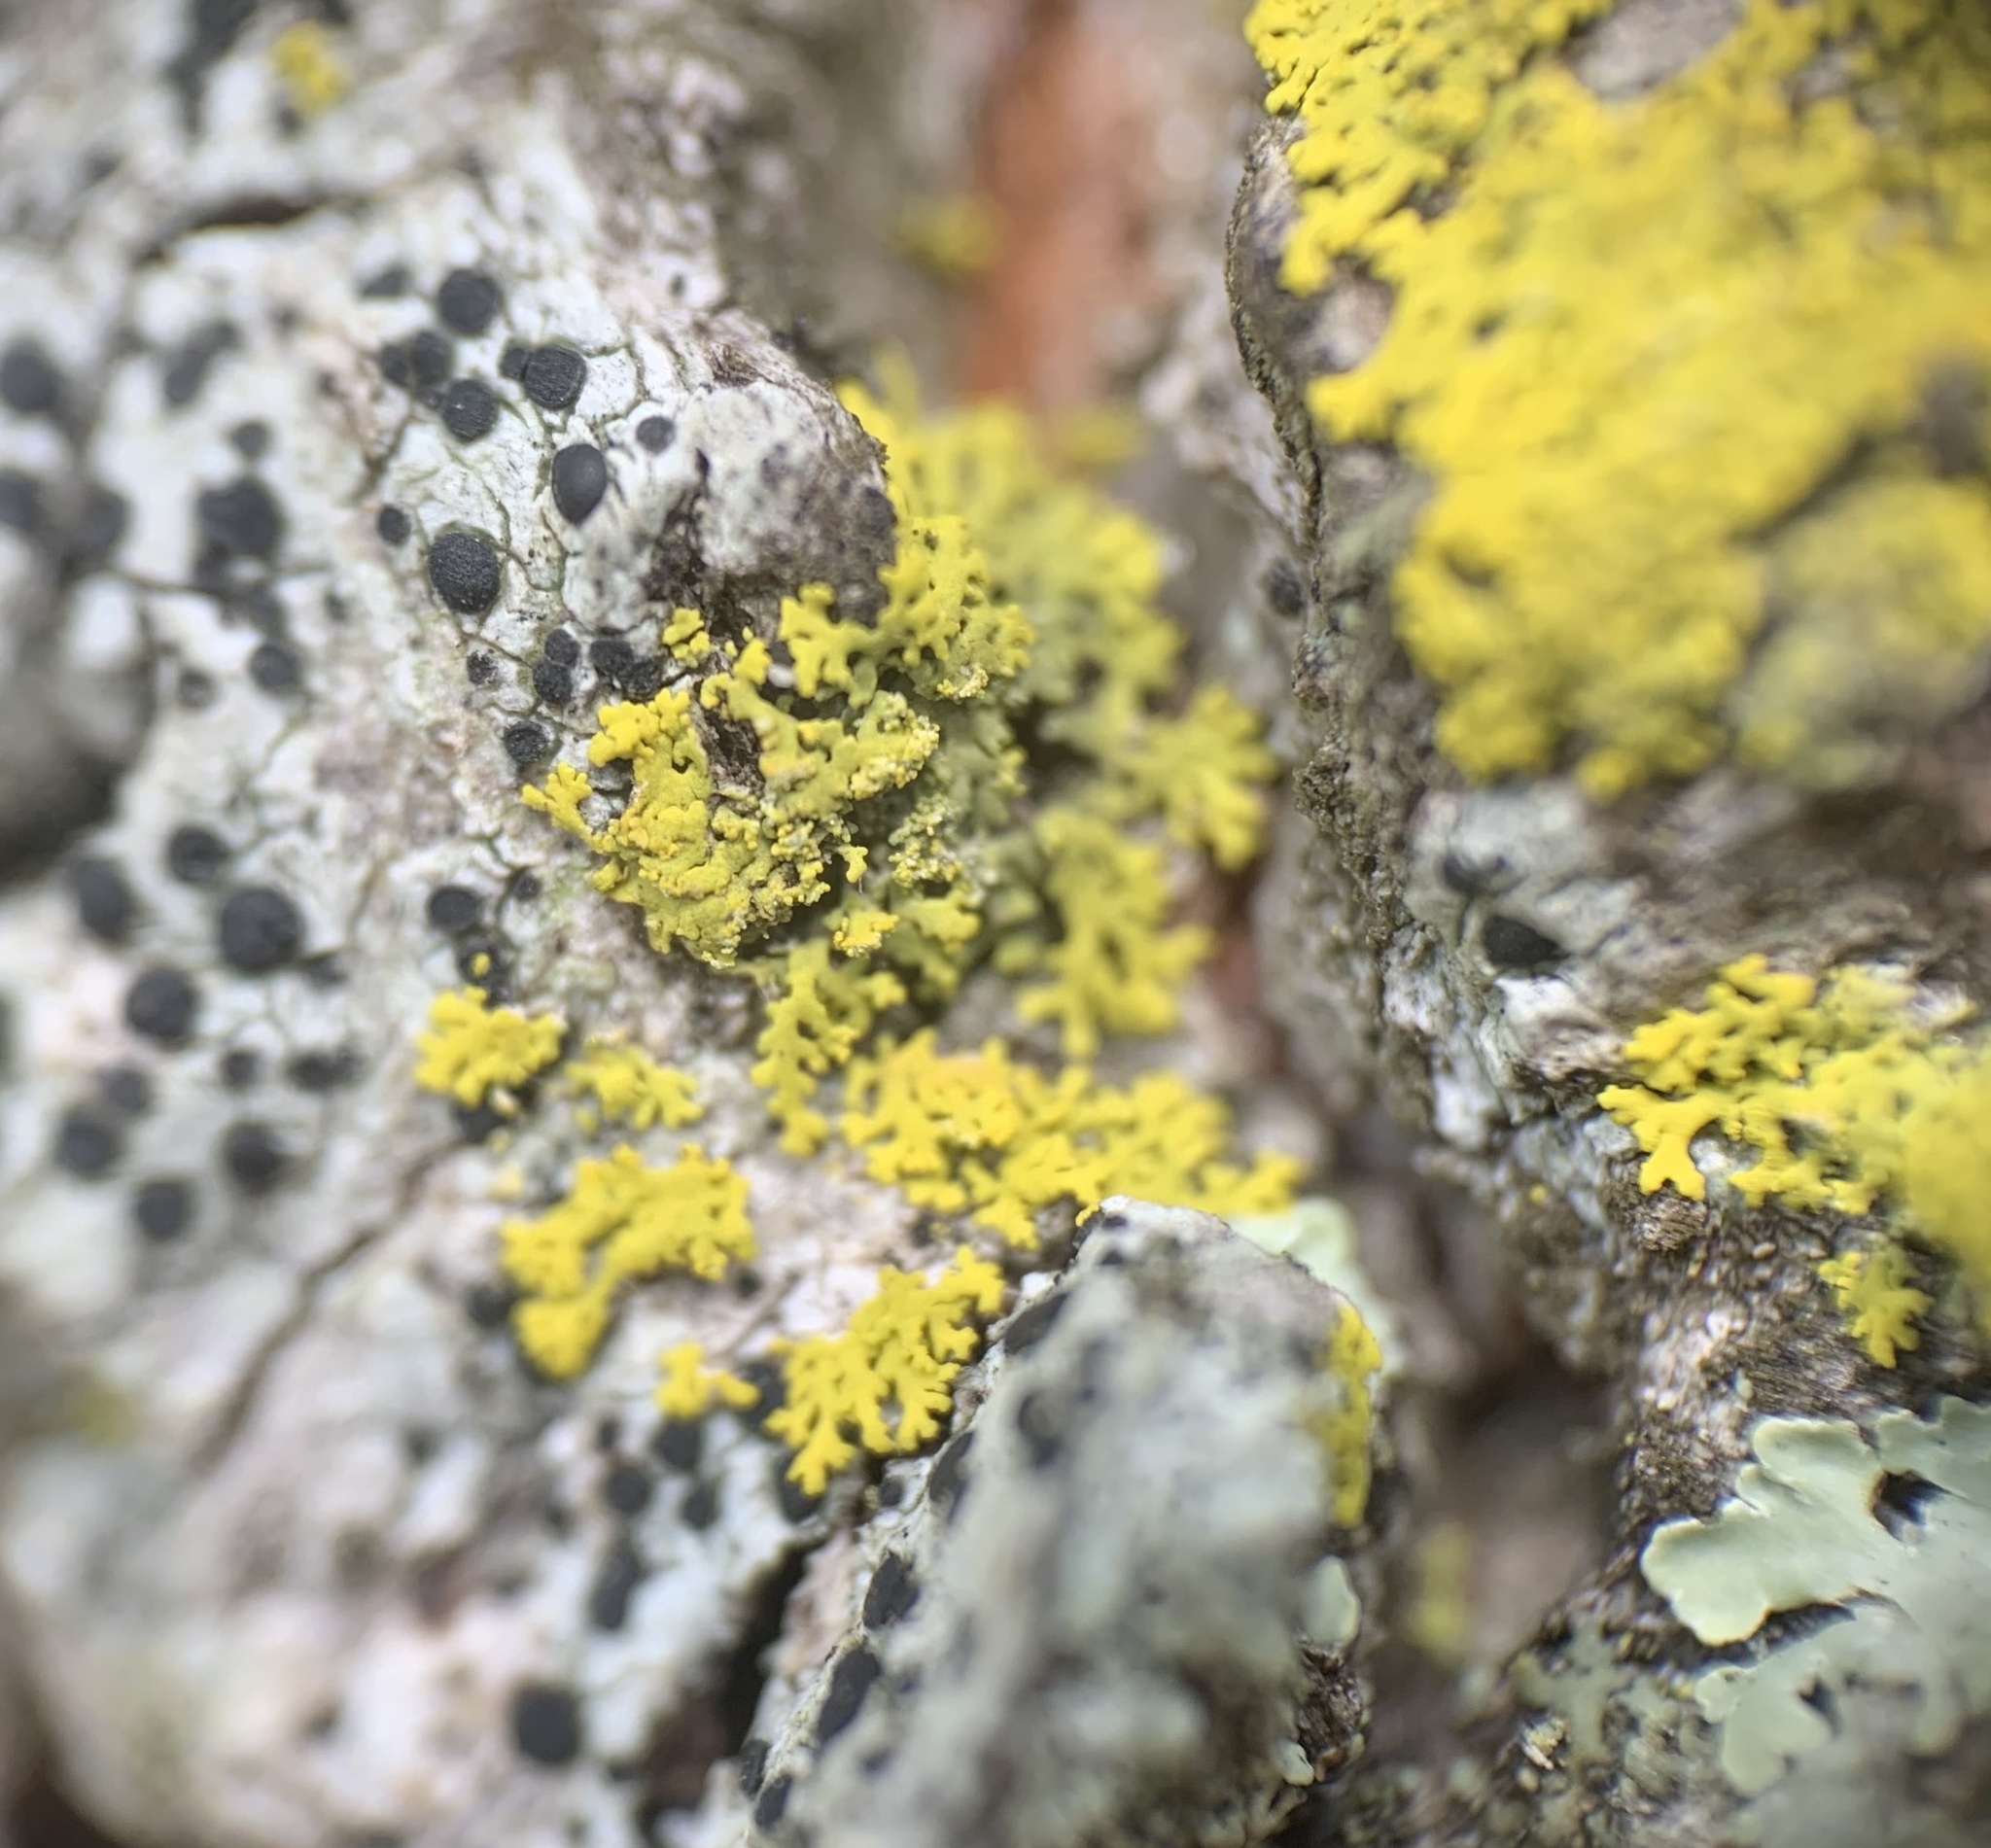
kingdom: Fungi
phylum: Ascomycota
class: Candelariomycetes
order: Candelariales
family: Candelariaceae
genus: Candelaria
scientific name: Candelaria concolor
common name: Candleflame lichen
